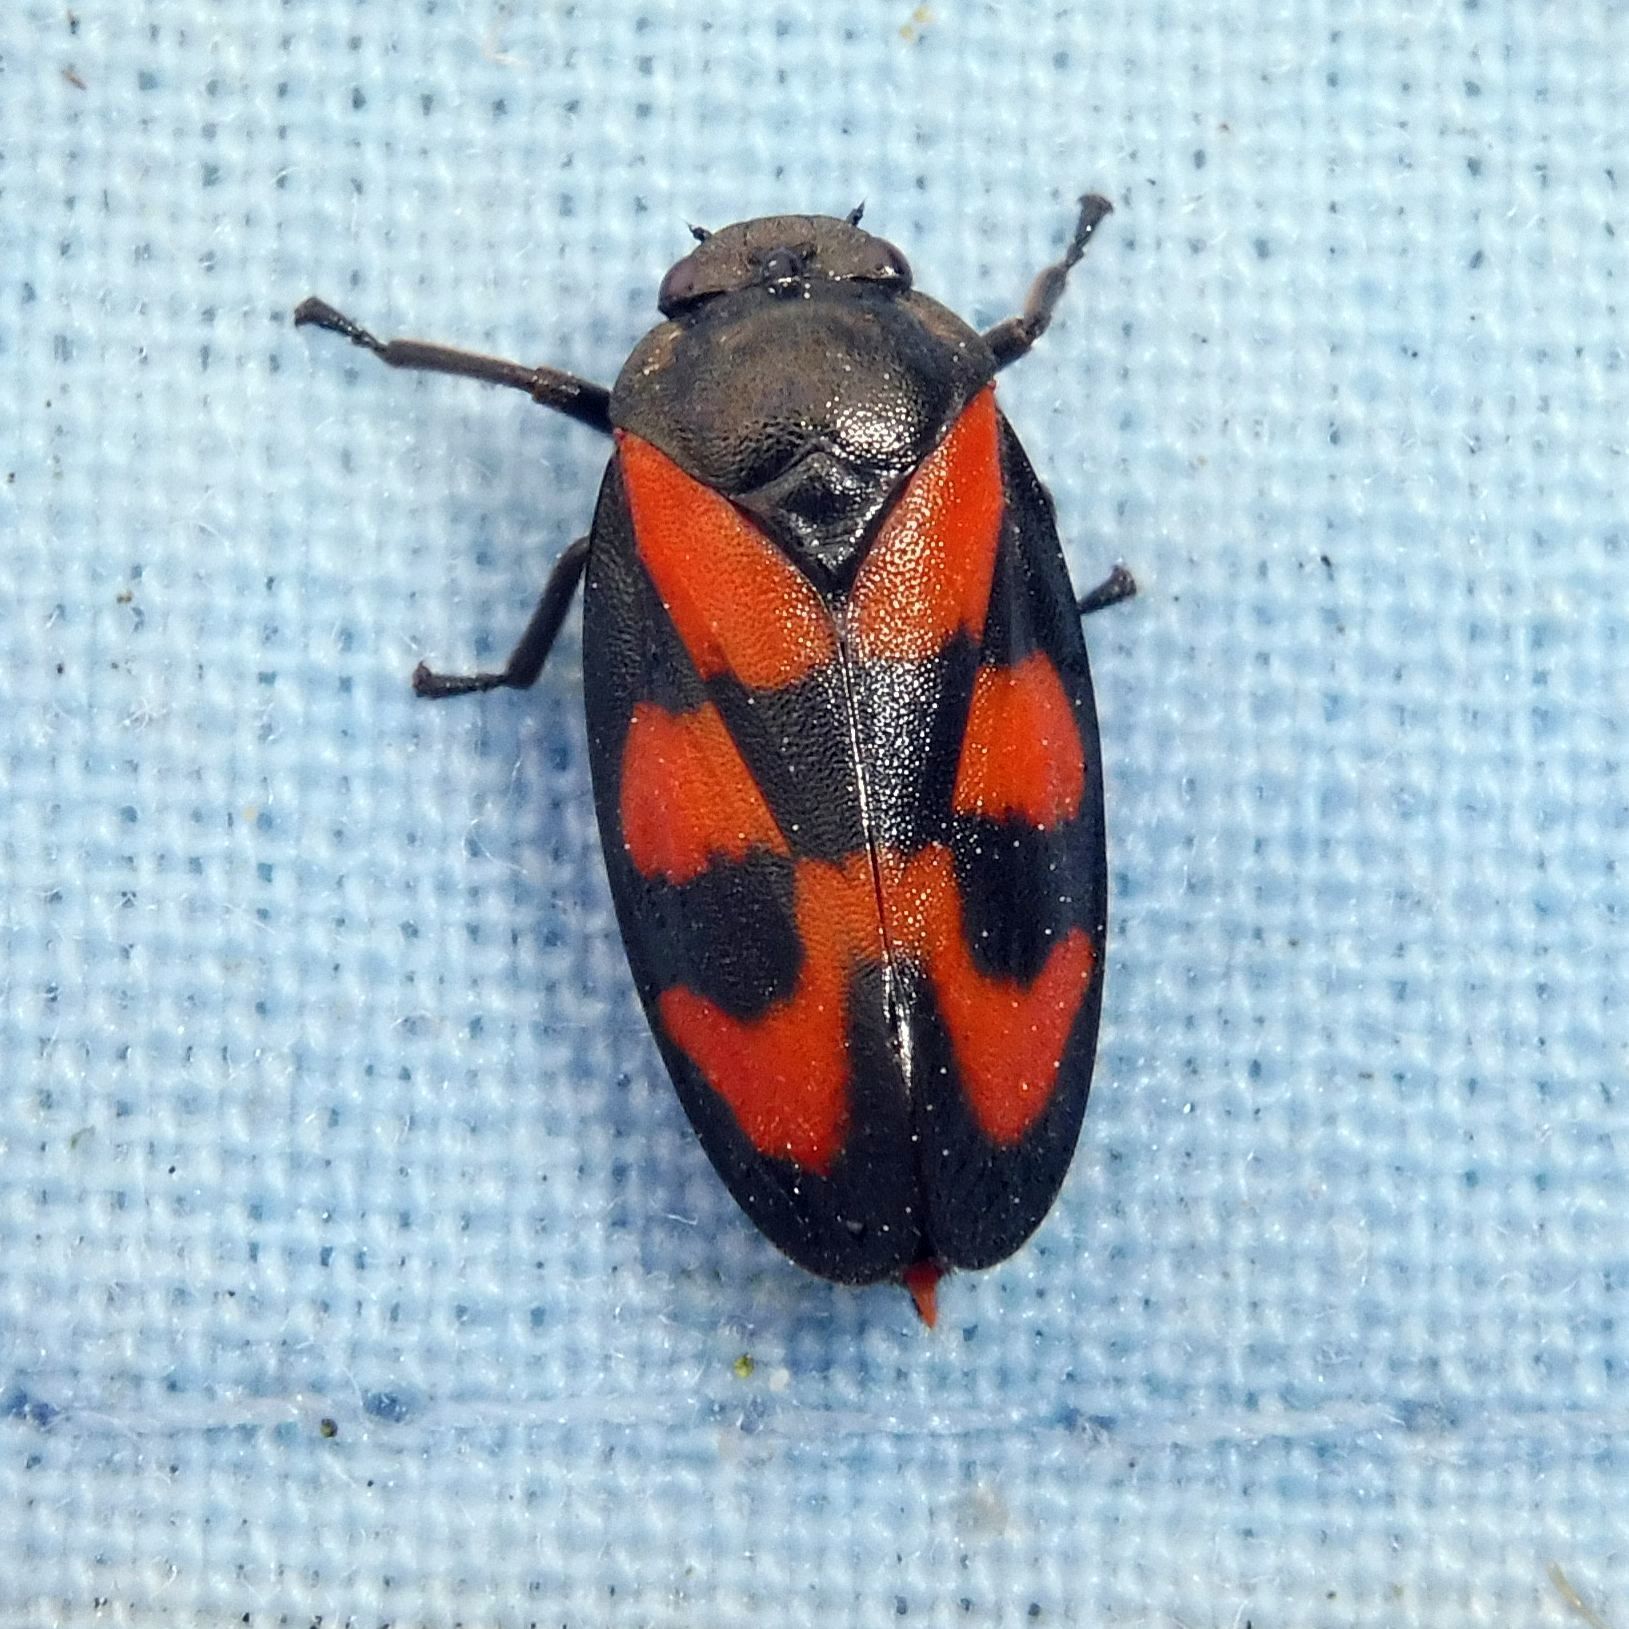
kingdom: Animalia
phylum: Arthropoda
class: Insecta
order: Hemiptera
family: Cercopidae
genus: Cercopis
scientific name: Cercopis vulnerata
